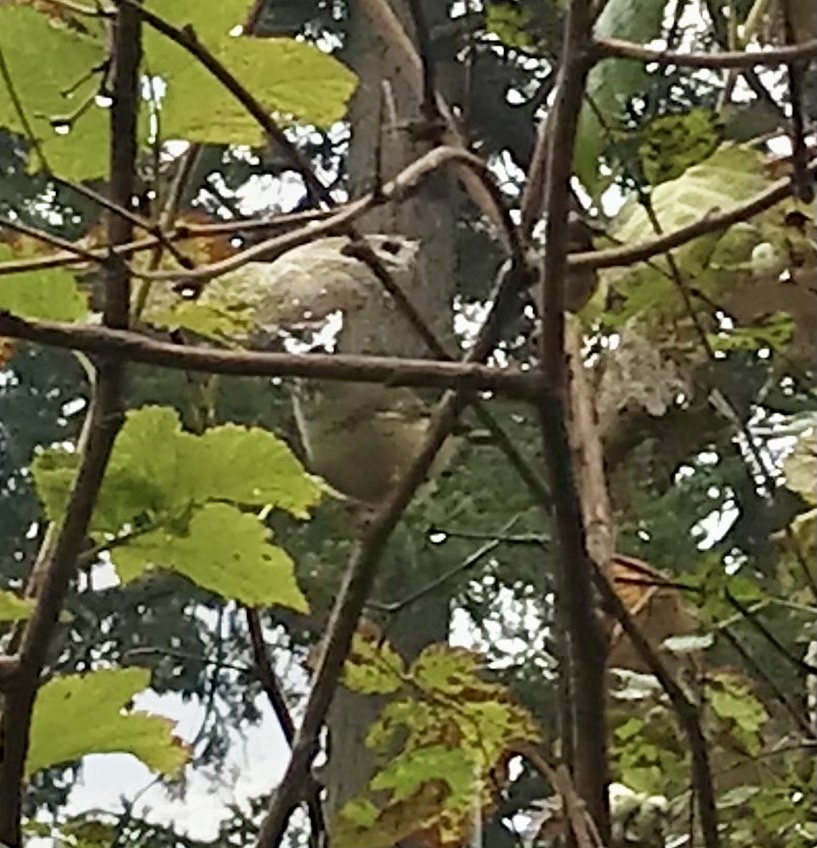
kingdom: Animalia
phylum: Chordata
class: Aves
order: Passeriformes
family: Regulidae
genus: Regulus
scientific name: Regulus calendula
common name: Ruby-crowned kinglet
